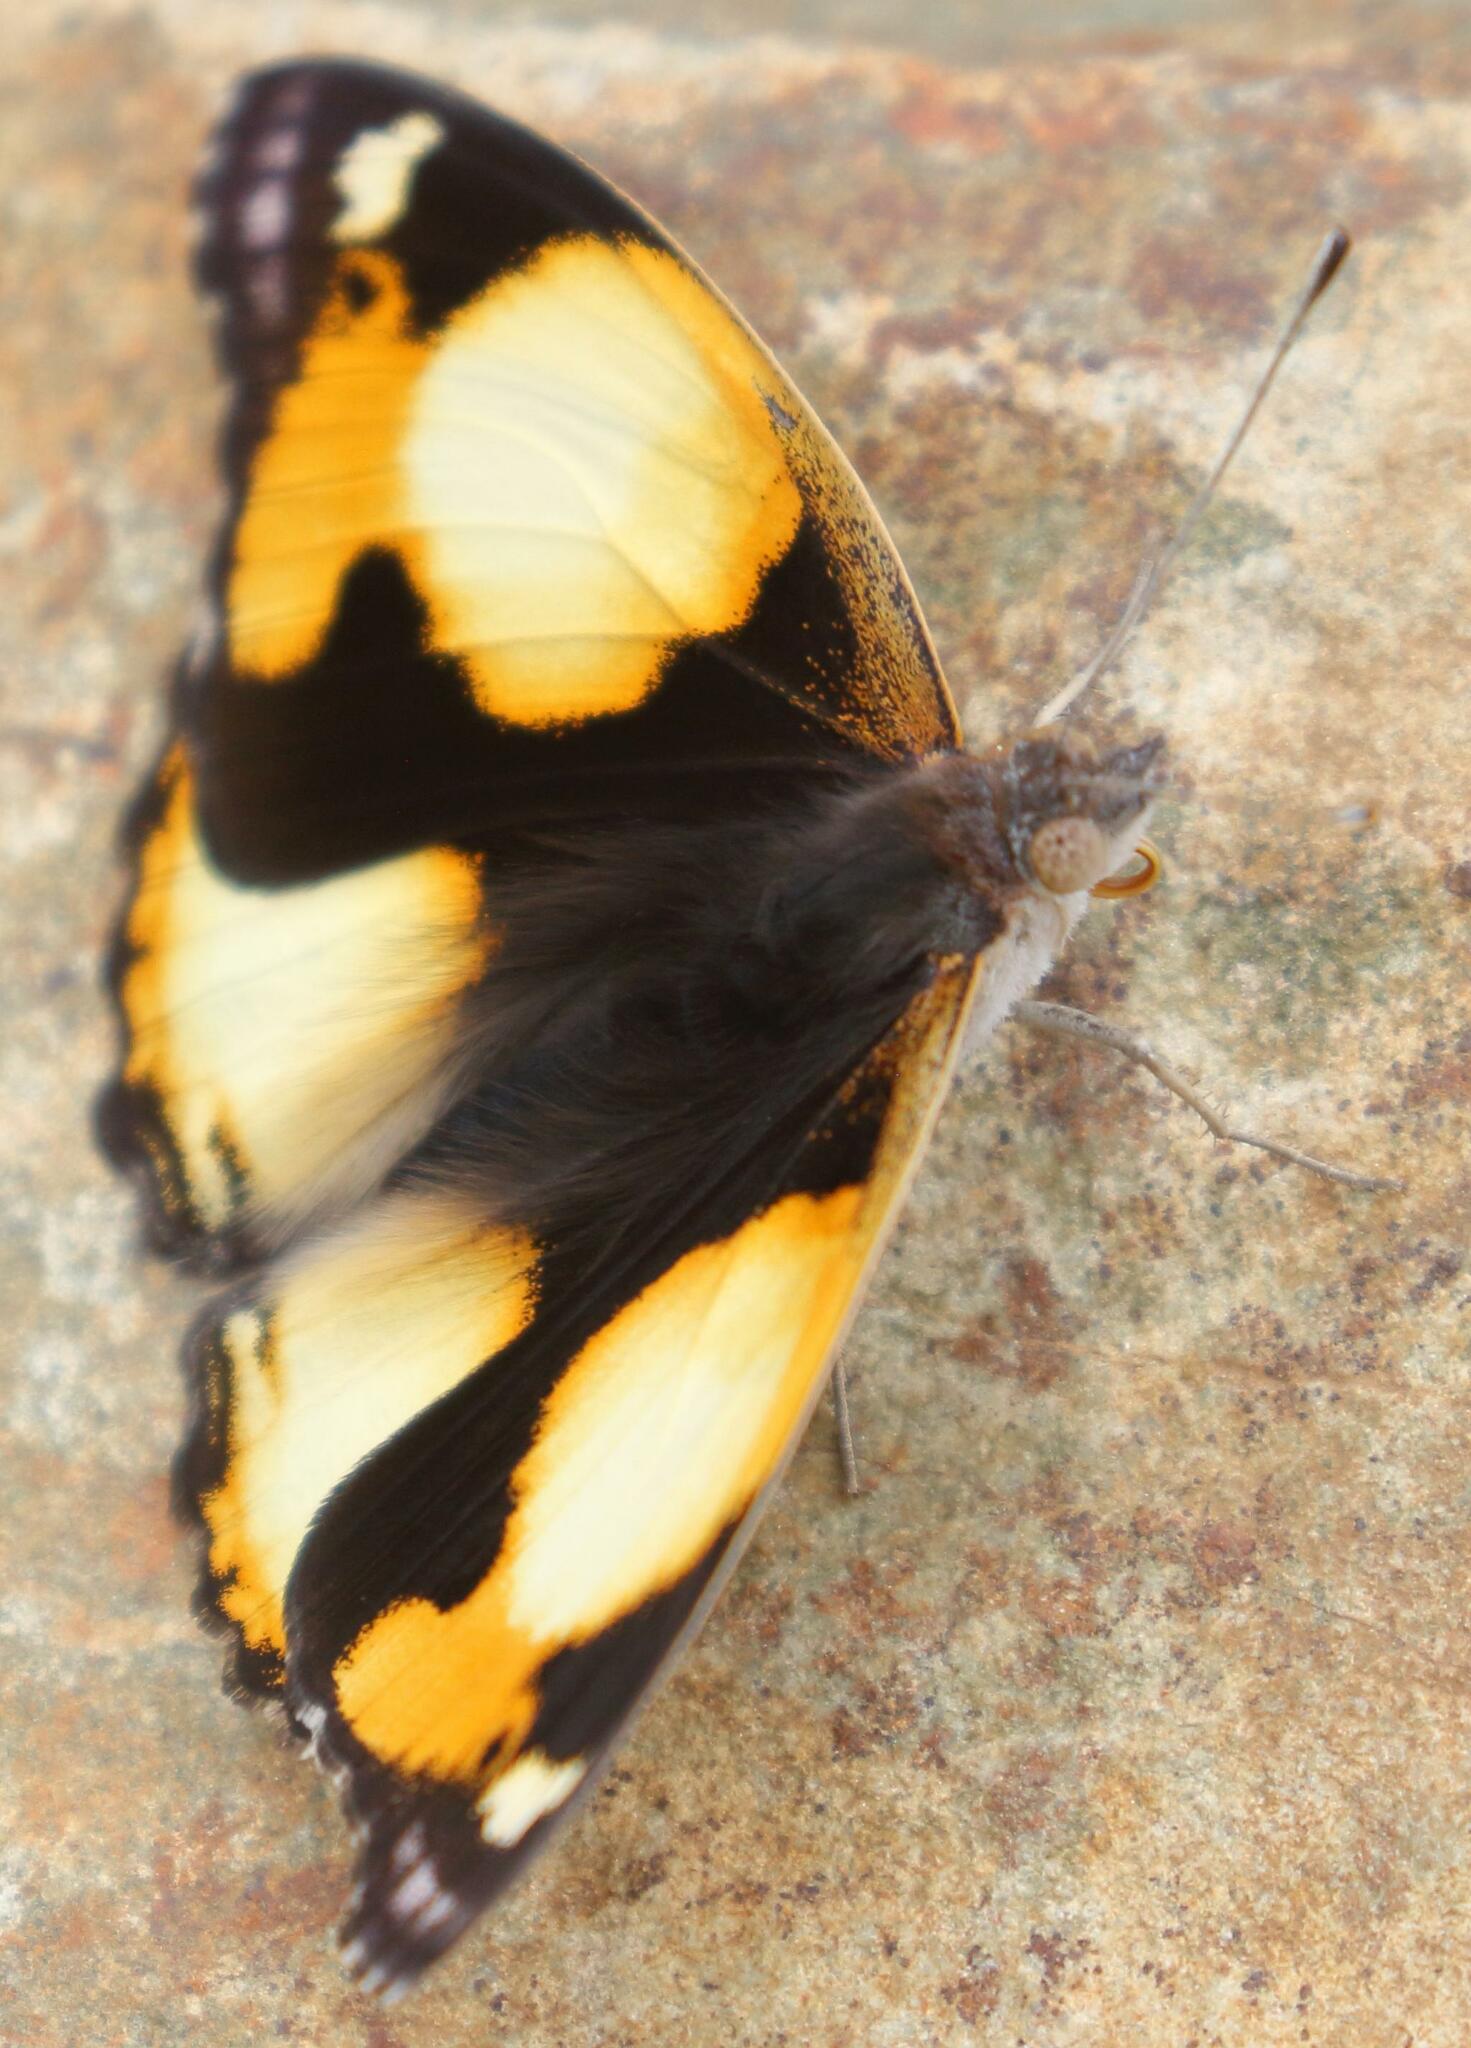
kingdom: Animalia
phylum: Arthropoda
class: Insecta
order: Lepidoptera
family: Nymphalidae
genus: Junonia
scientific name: Junonia hierta
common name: Yellow pansy
